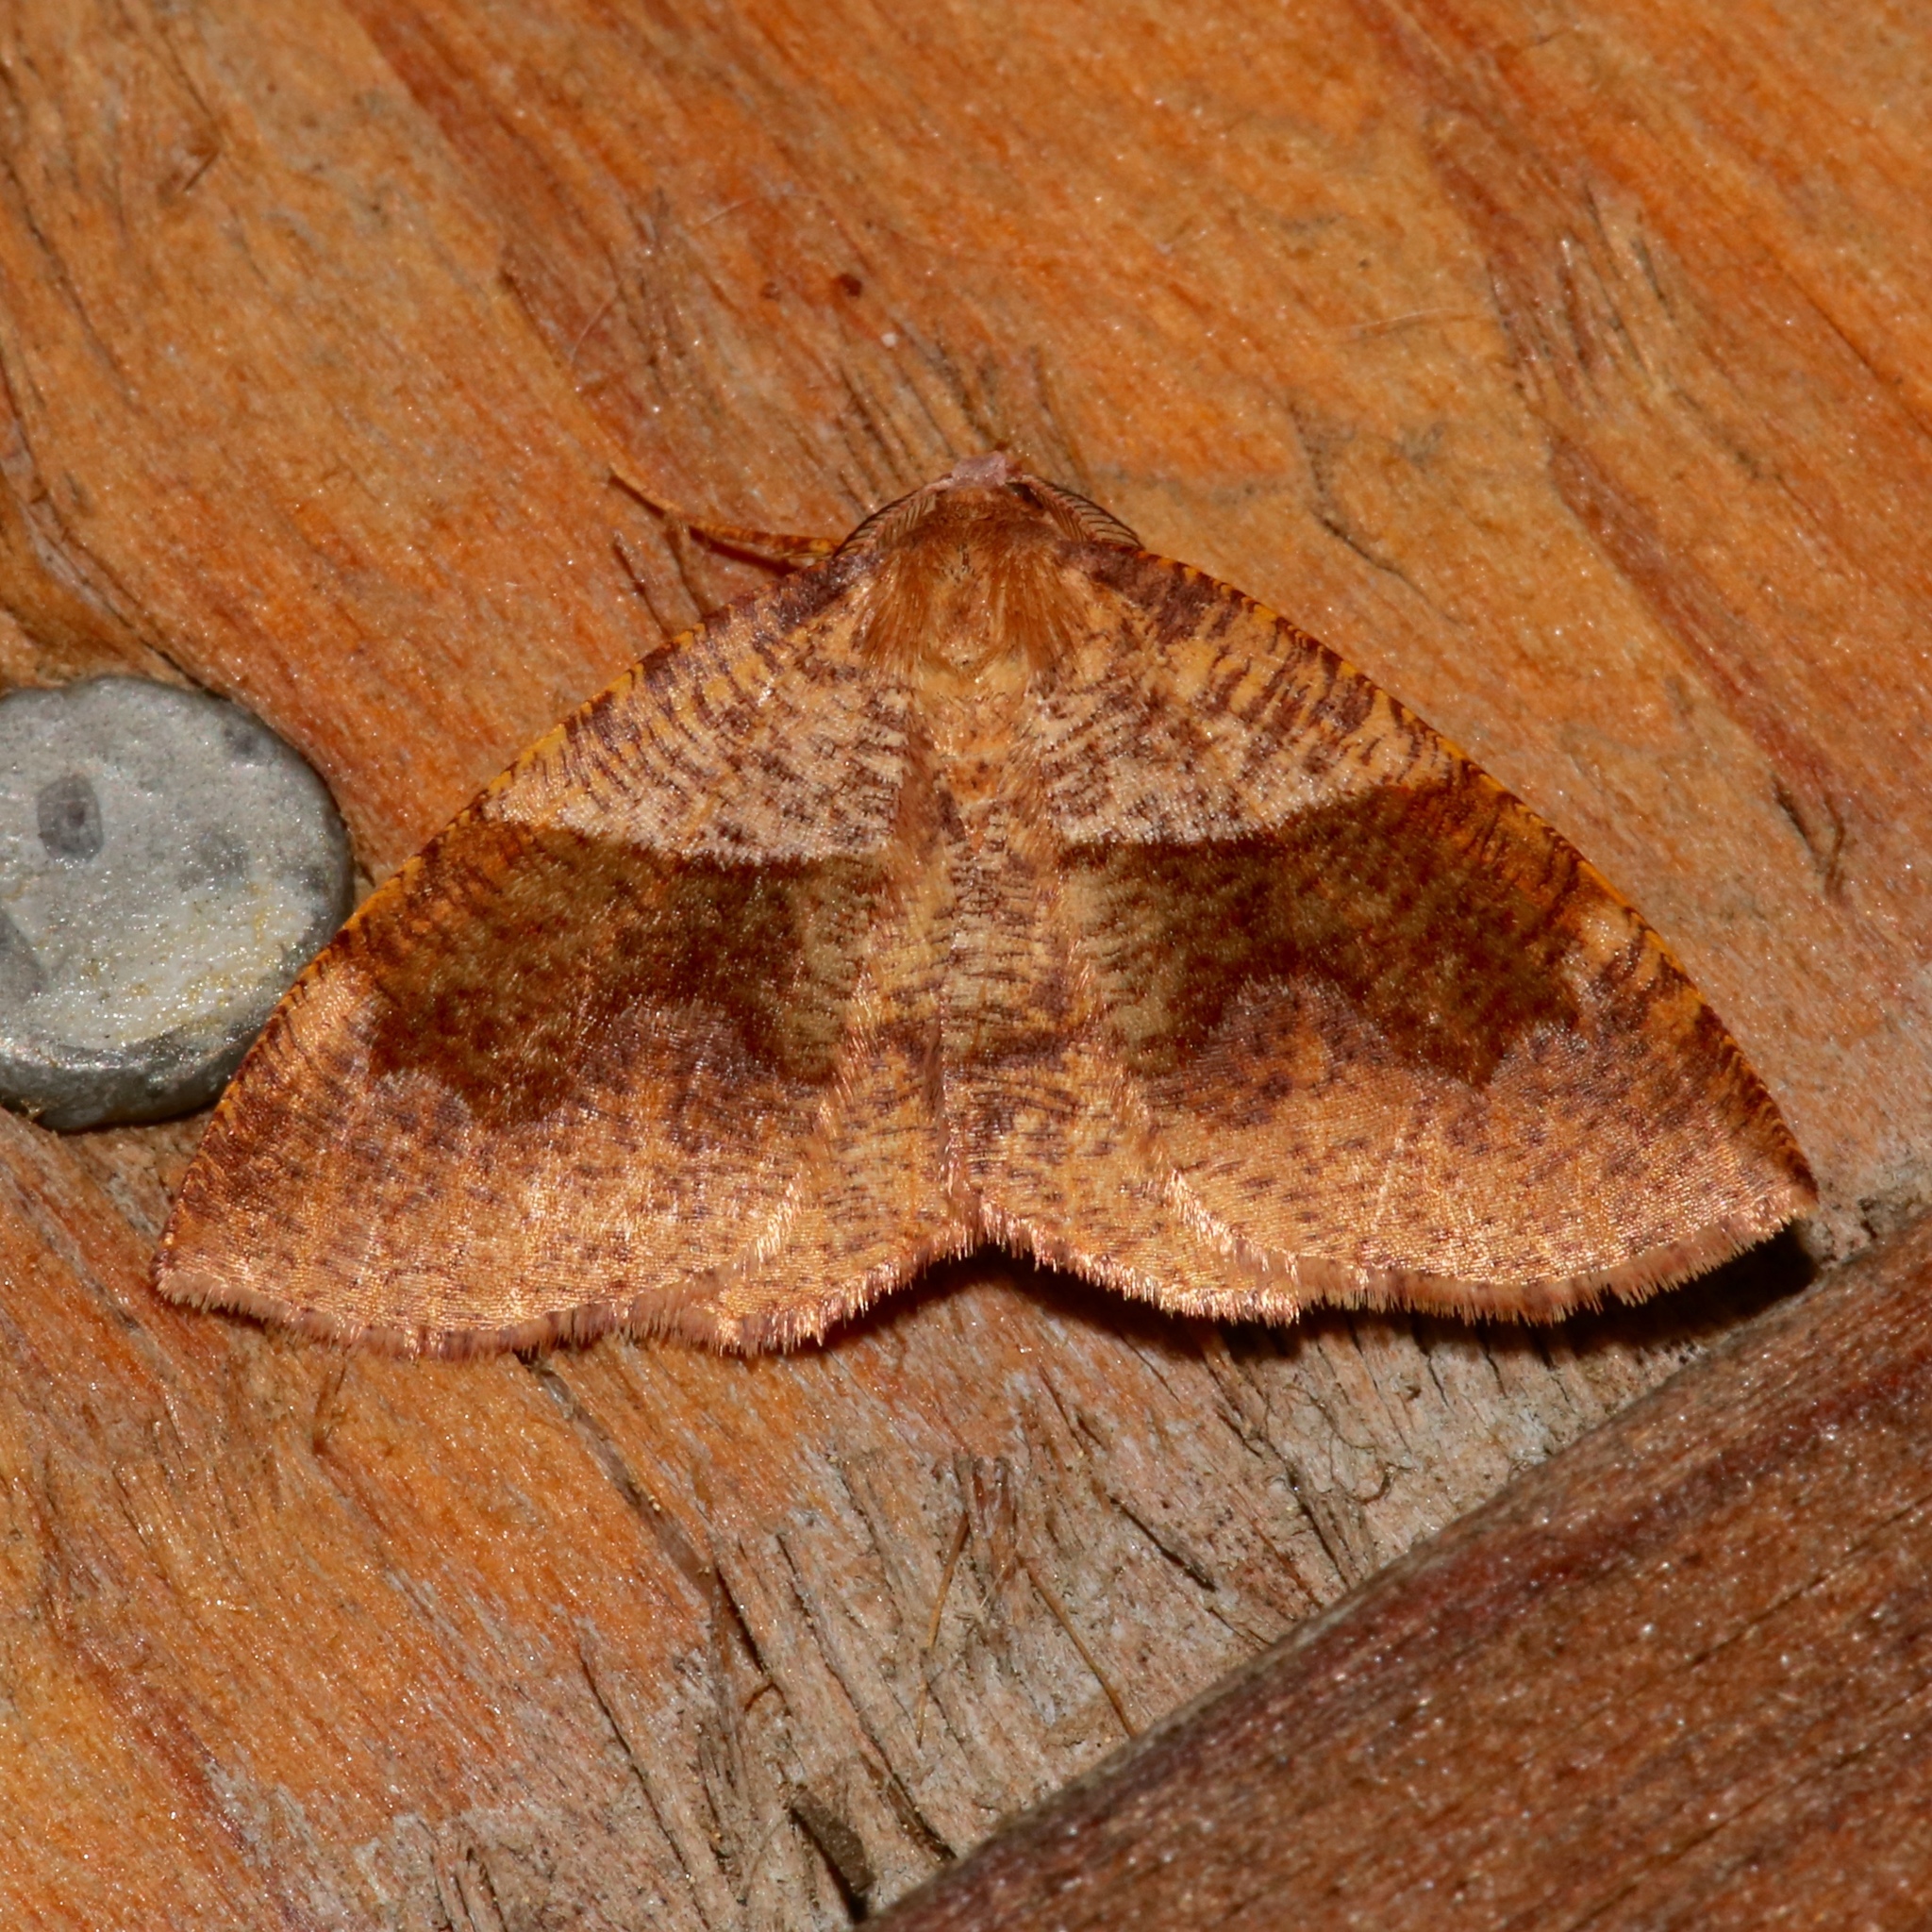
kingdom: Animalia
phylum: Arthropoda
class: Insecta
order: Lepidoptera
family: Geometridae
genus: Plagodis
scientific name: Plagodis pulveraria
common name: Barred umber
